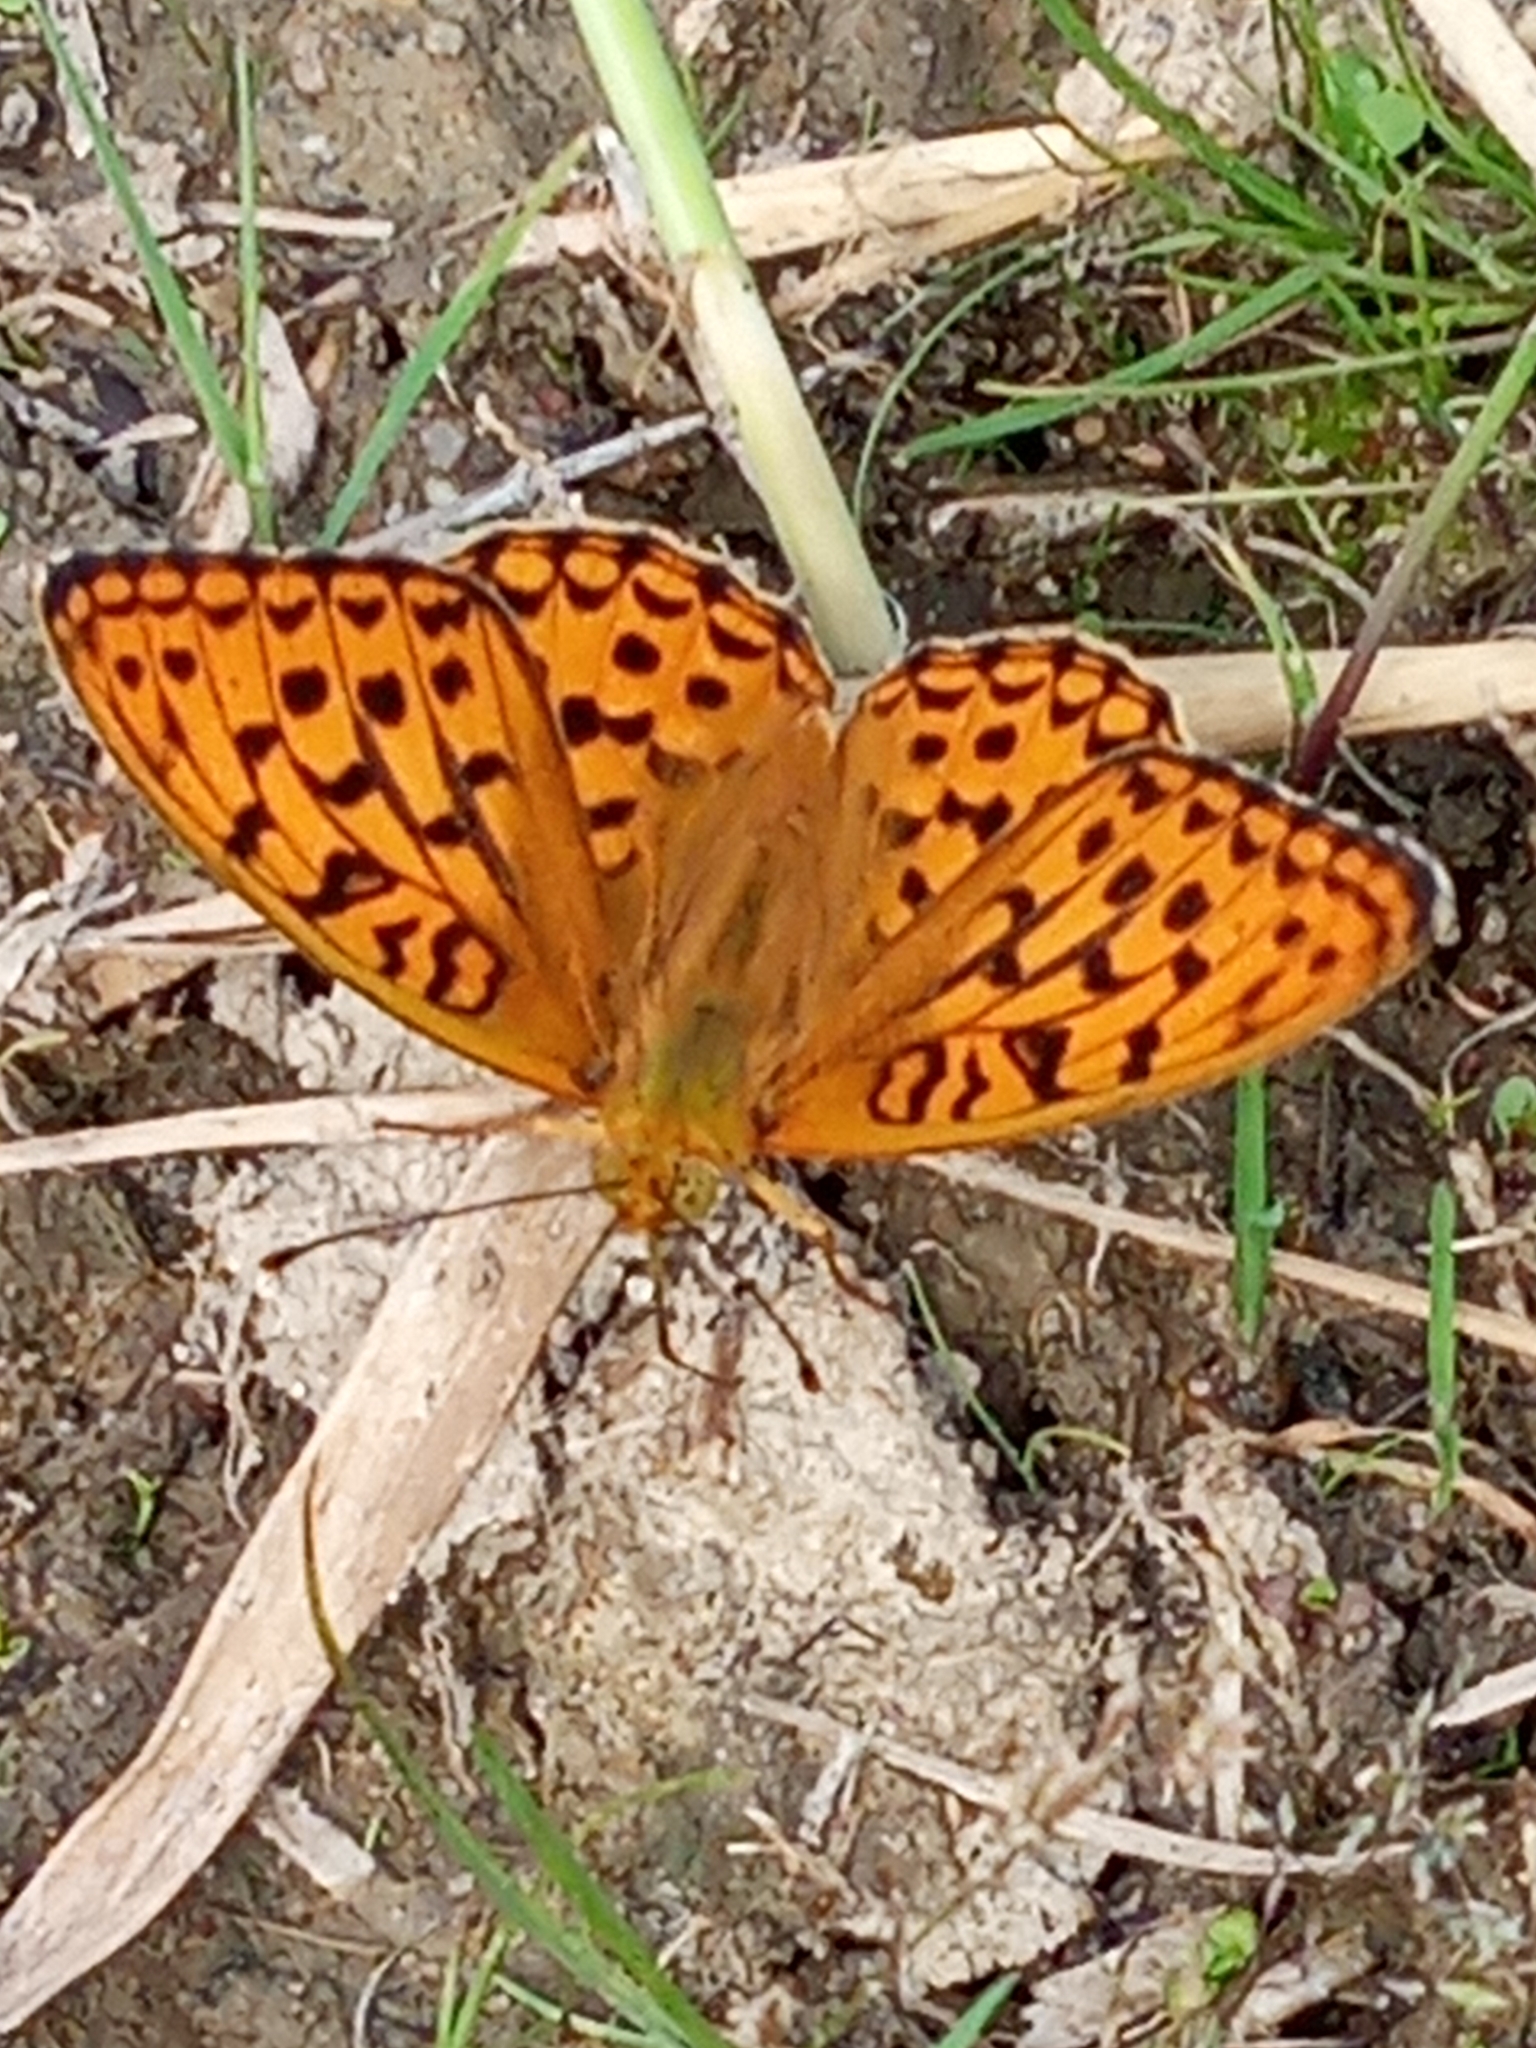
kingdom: Animalia
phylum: Arthropoda
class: Insecta
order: Lepidoptera
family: Nymphalidae
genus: Fabriciana
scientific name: Fabriciana adippe
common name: High brown fritillary
